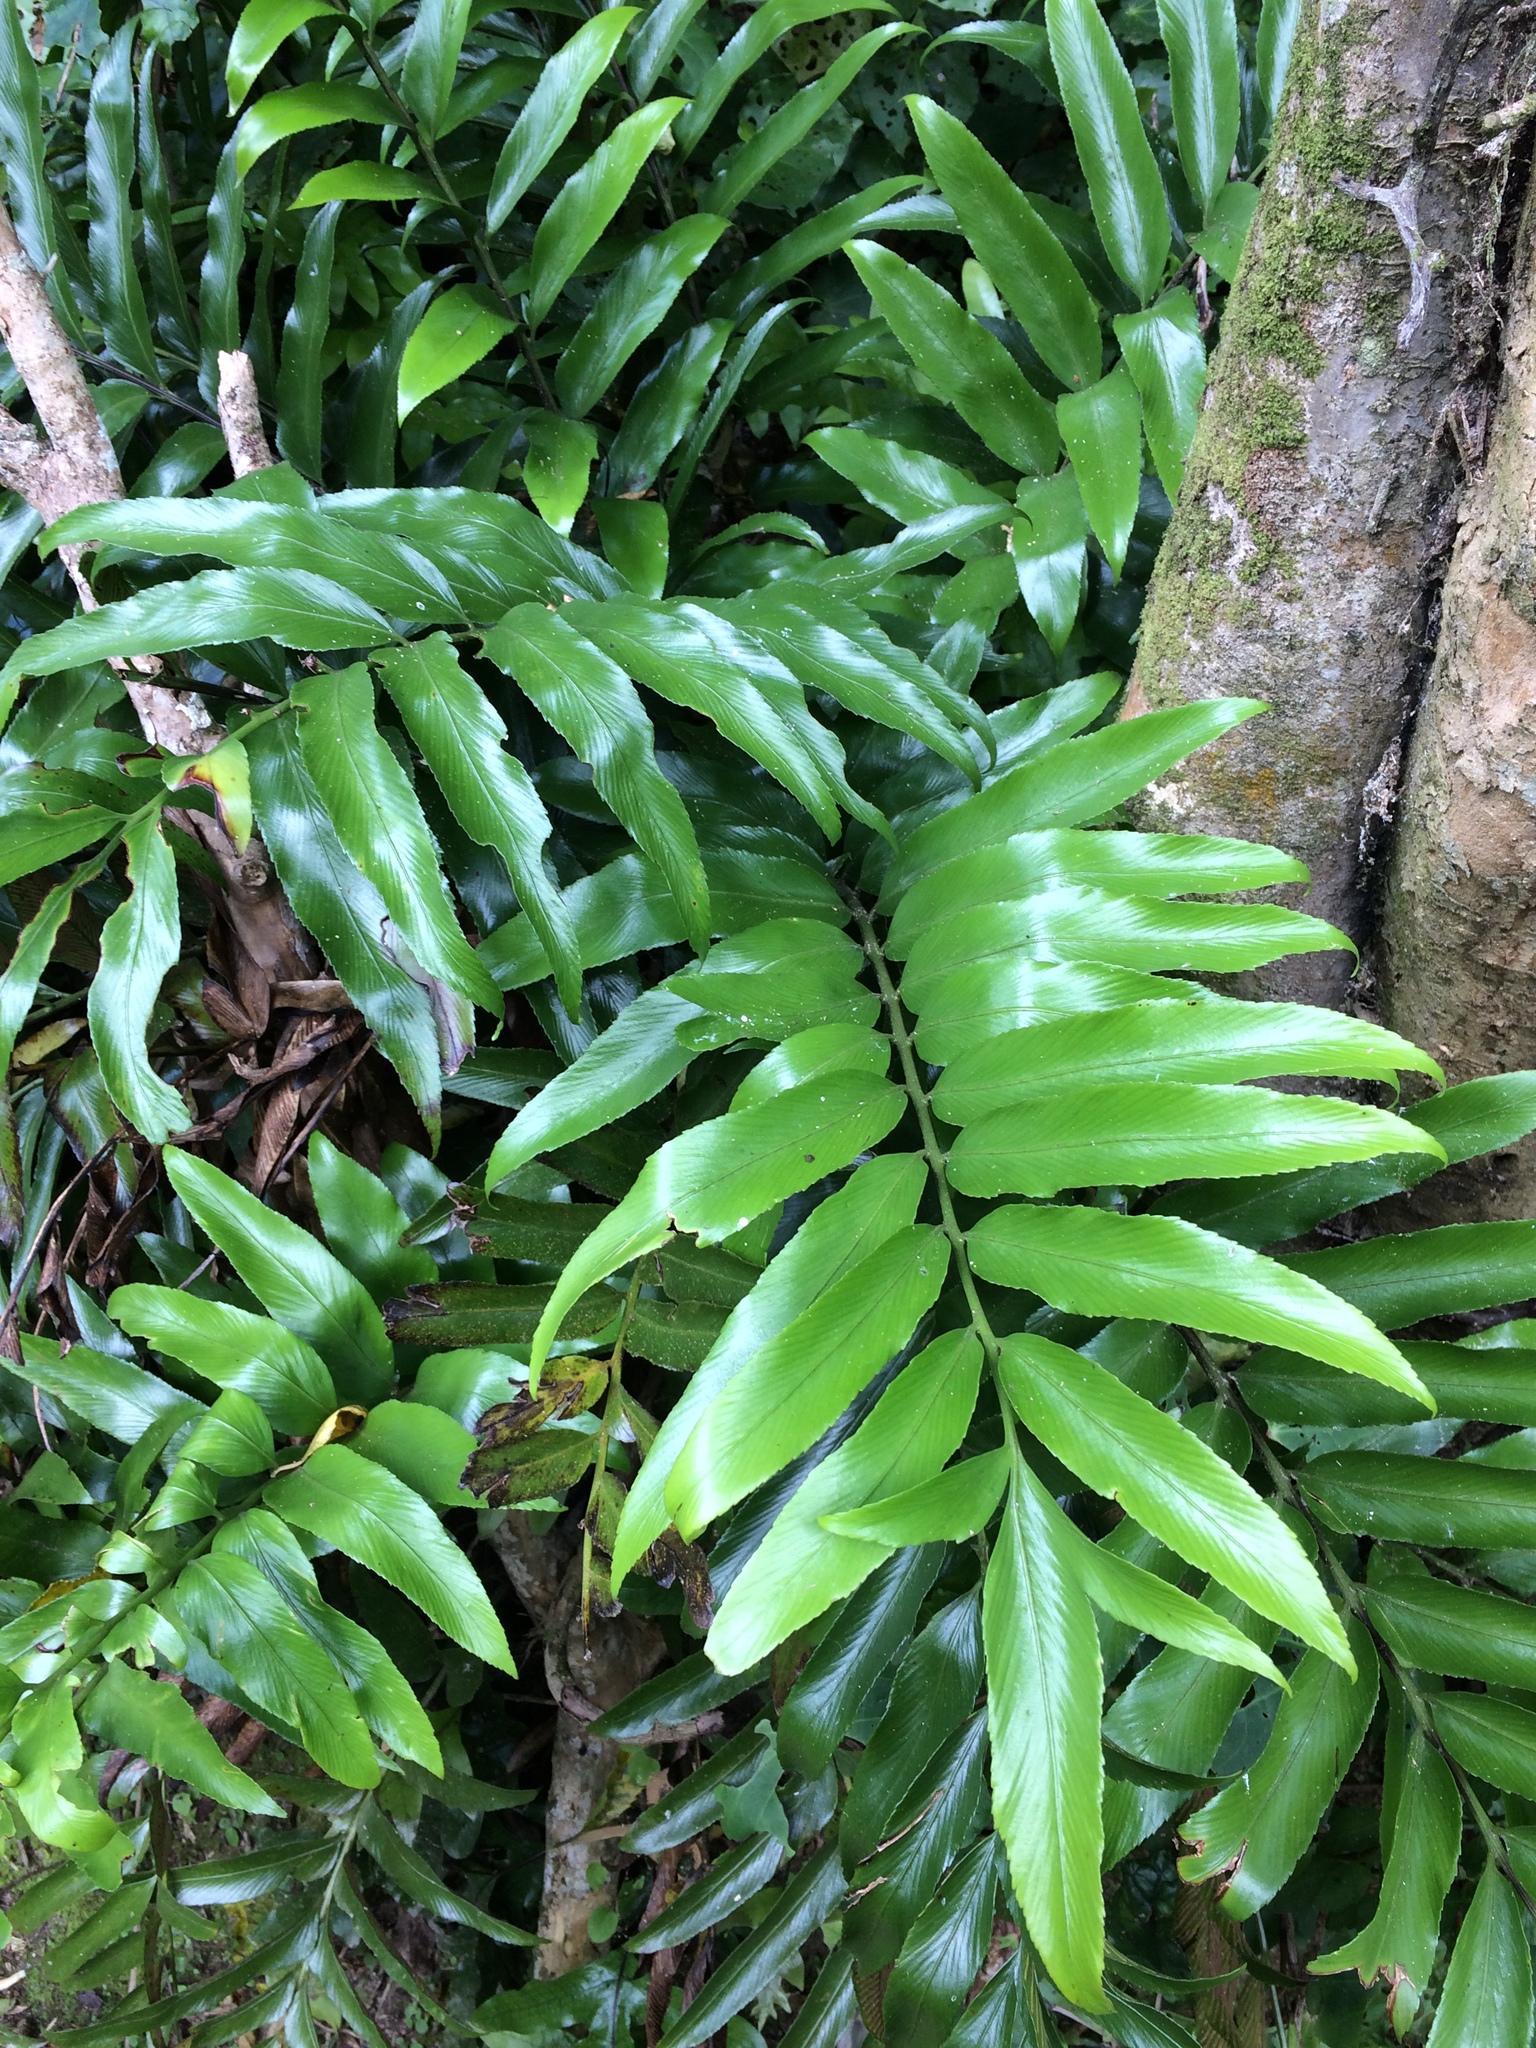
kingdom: Plantae
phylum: Tracheophyta
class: Polypodiopsida
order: Polypodiales
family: Aspleniaceae
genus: Asplenium
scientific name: Asplenium oblongifolium
